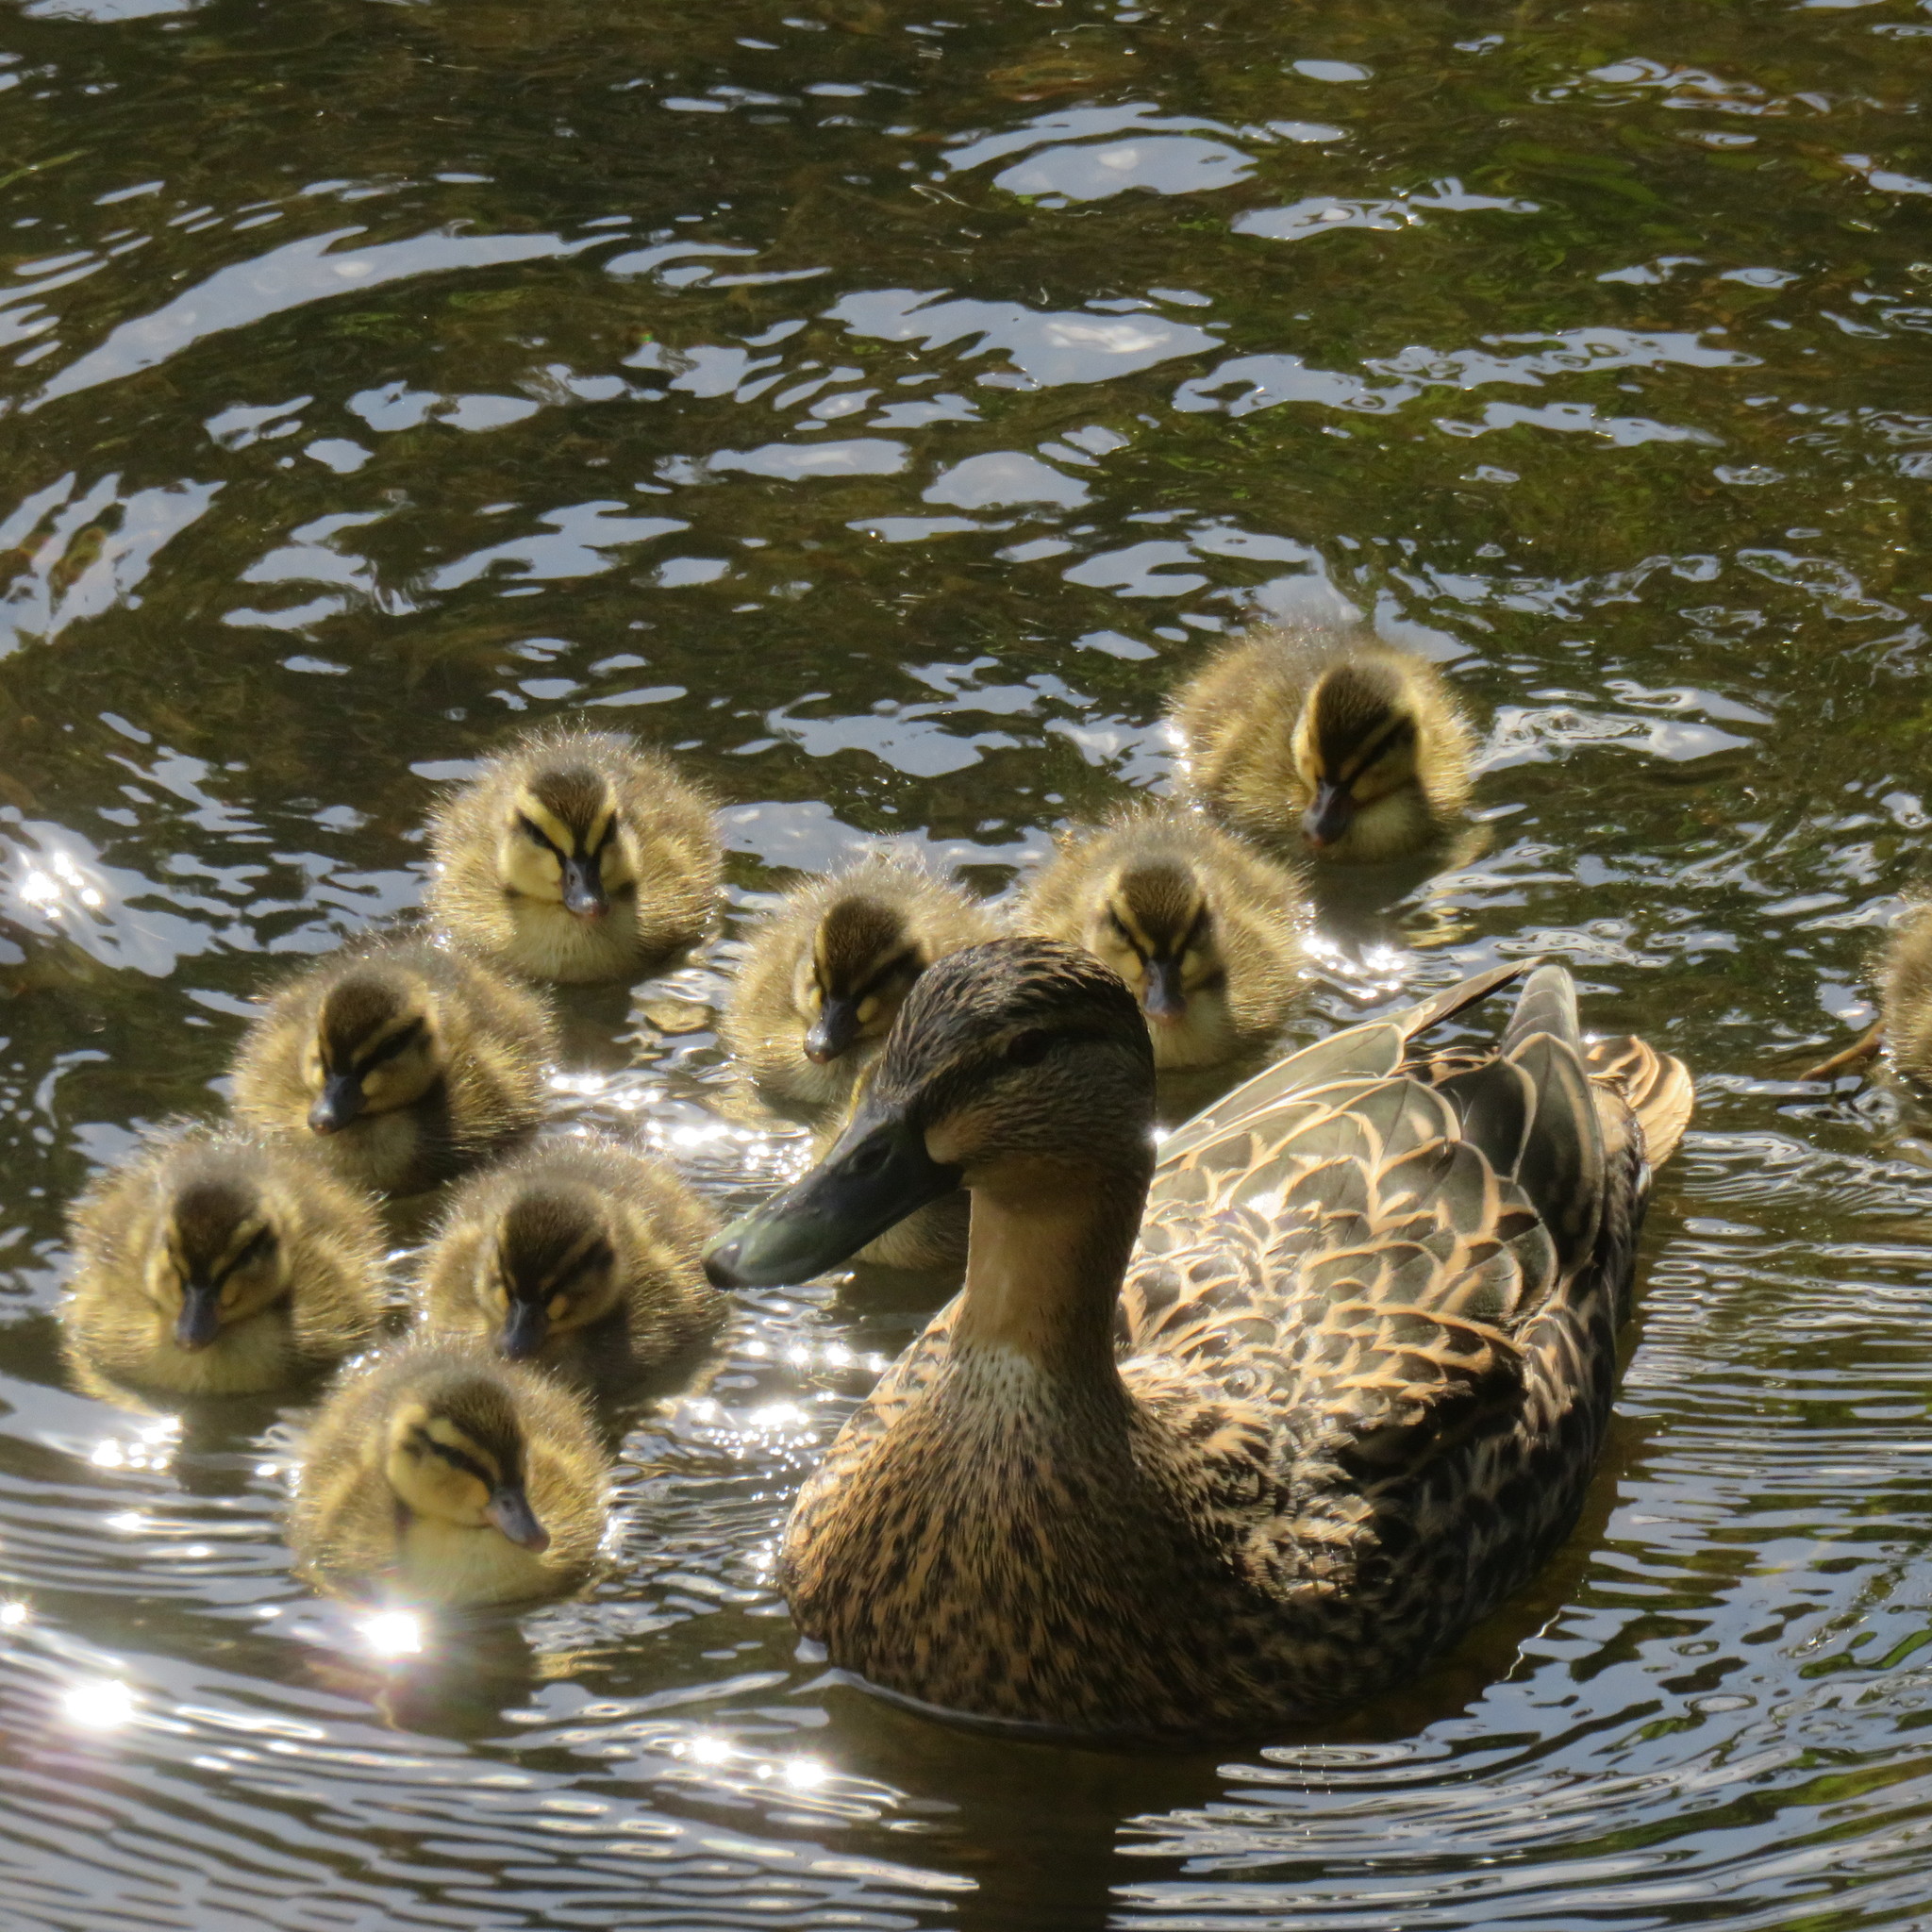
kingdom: Animalia
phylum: Chordata
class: Aves
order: Anseriformes
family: Anatidae
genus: Anas
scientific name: Anas
